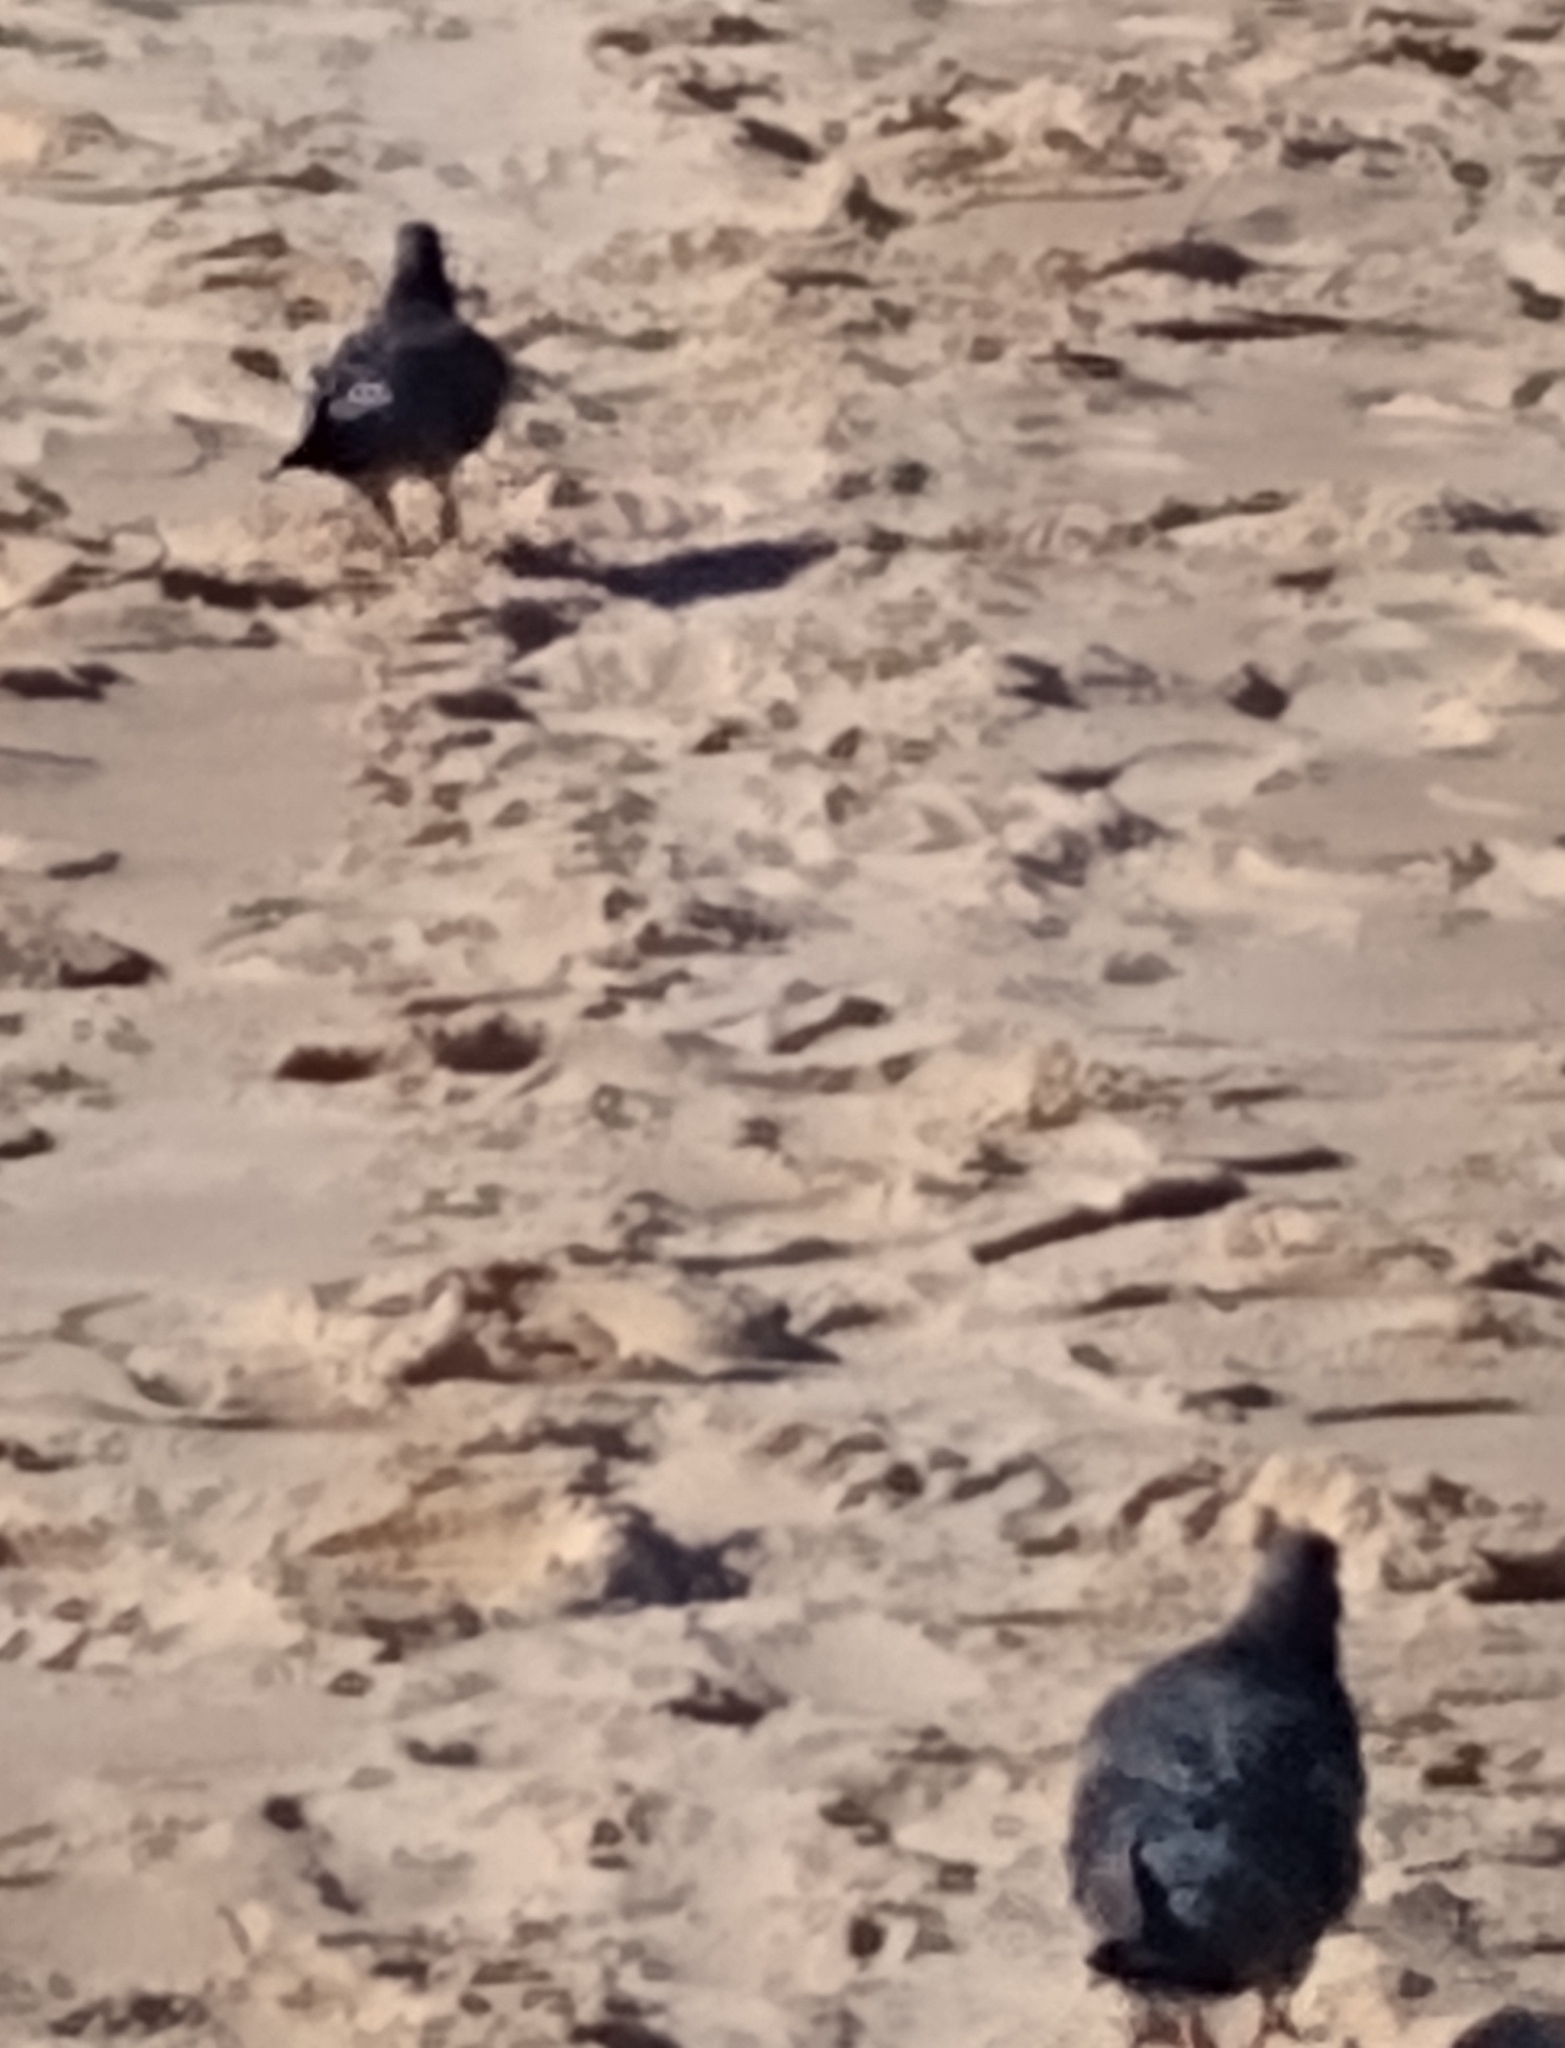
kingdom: Animalia
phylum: Chordata
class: Aves
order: Columbiformes
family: Columbidae
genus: Columba
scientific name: Columba livia
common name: Rock pigeon
